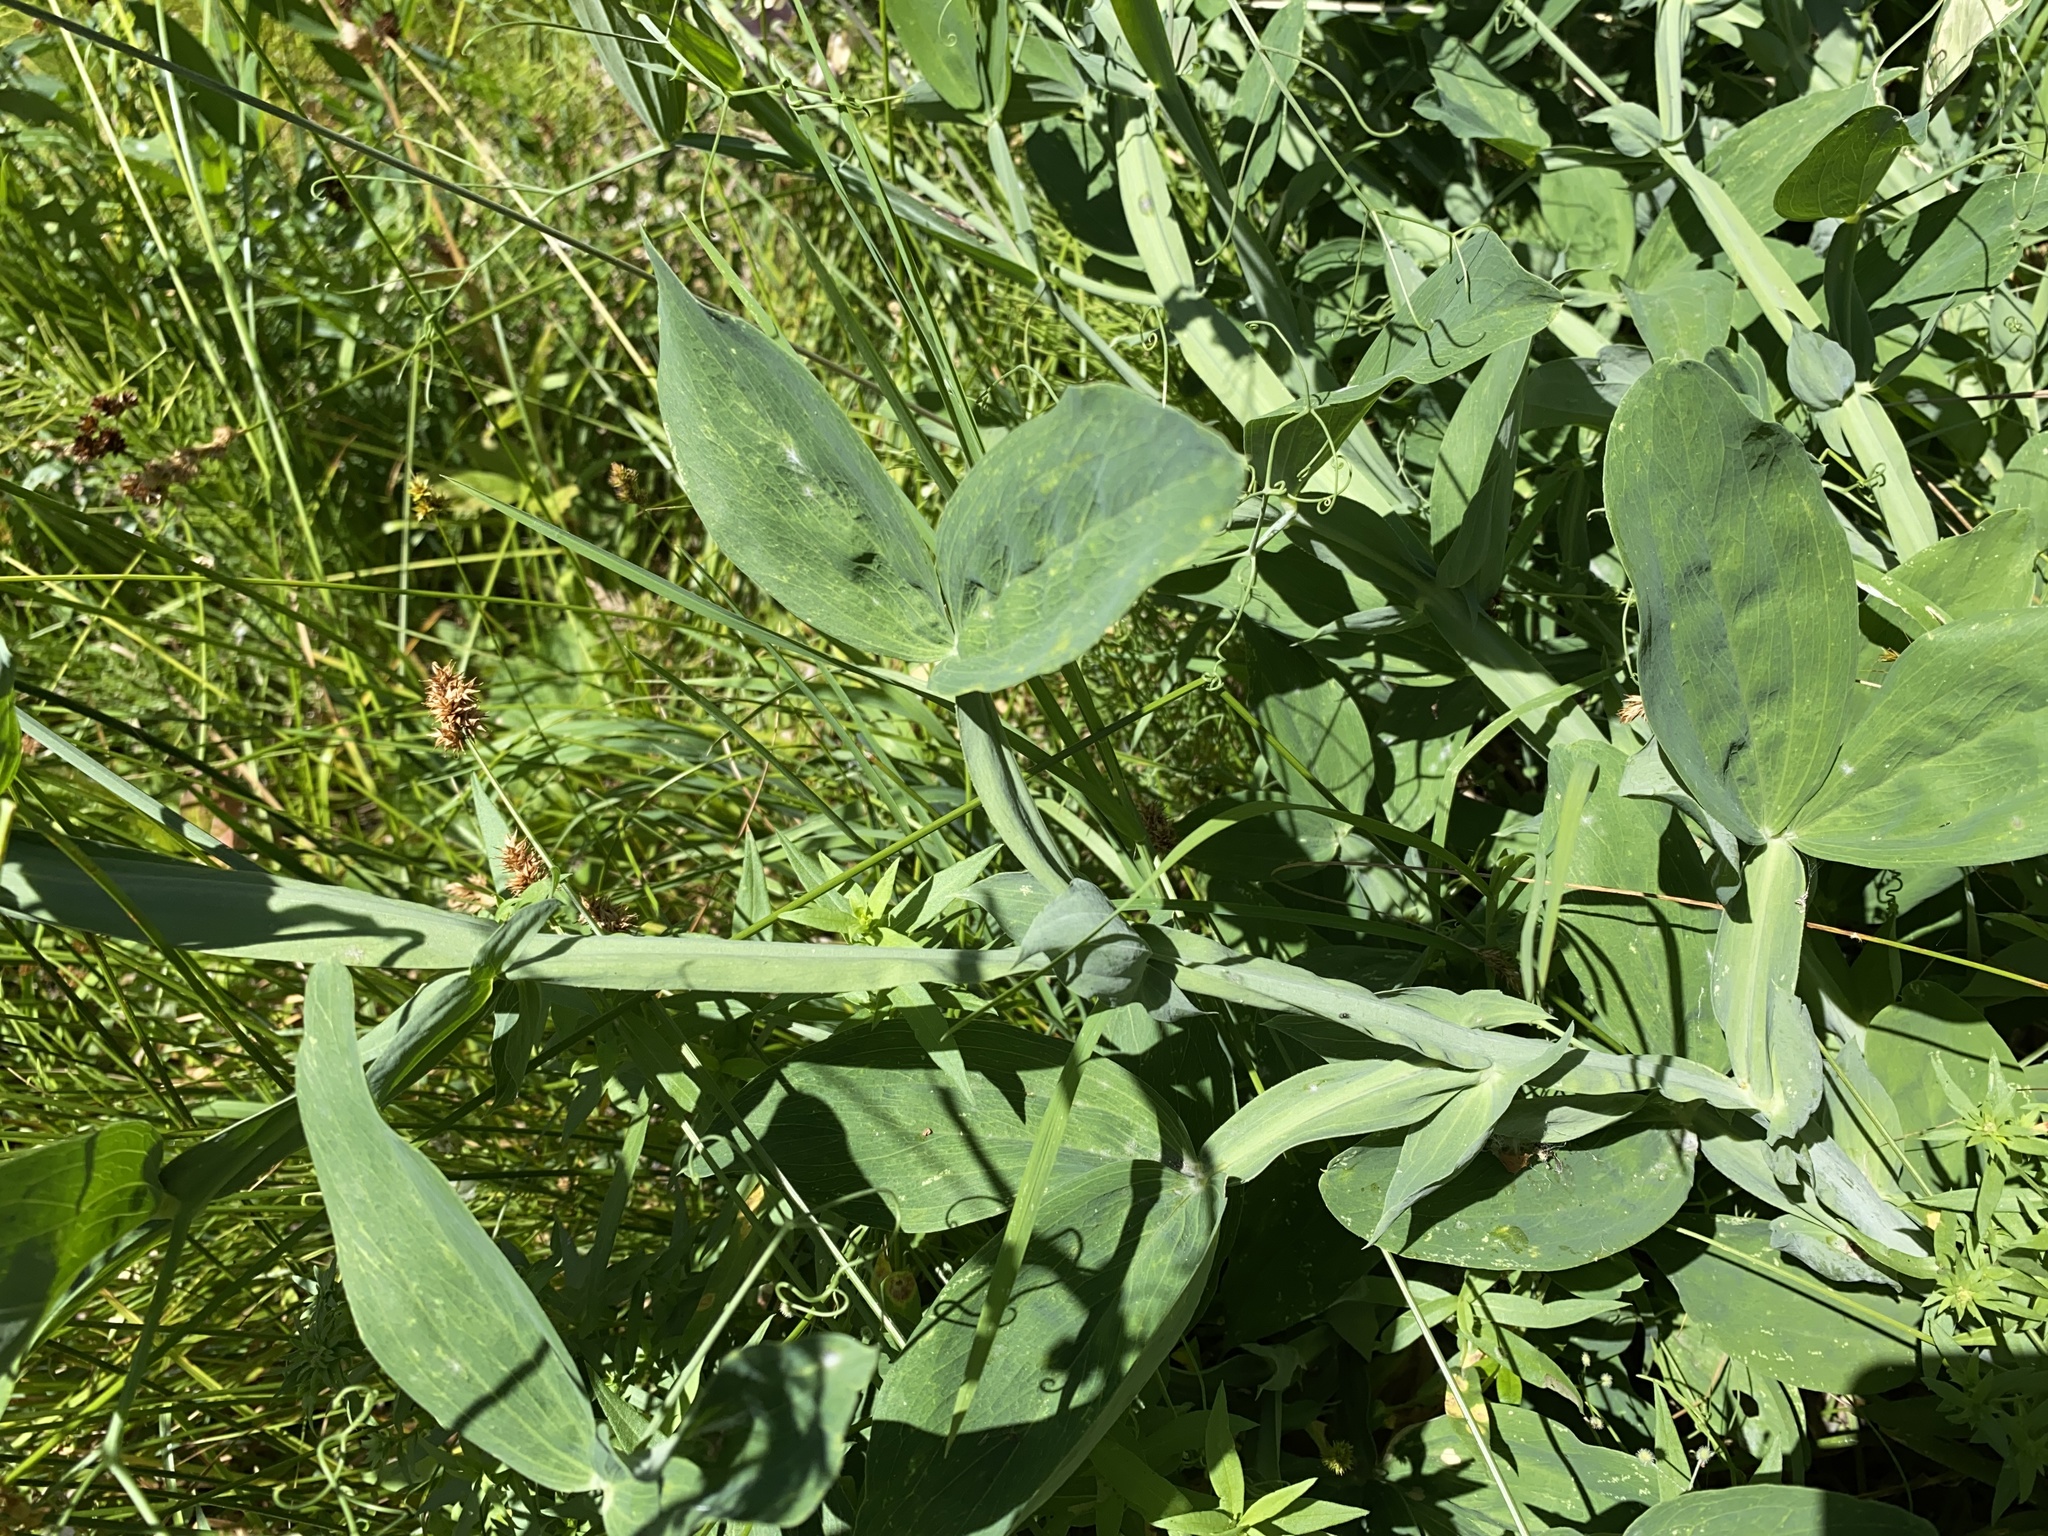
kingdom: Plantae
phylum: Tracheophyta
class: Magnoliopsida
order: Fabales
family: Fabaceae
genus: Lathyrus
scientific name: Lathyrus latifolius
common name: Perennial pea
